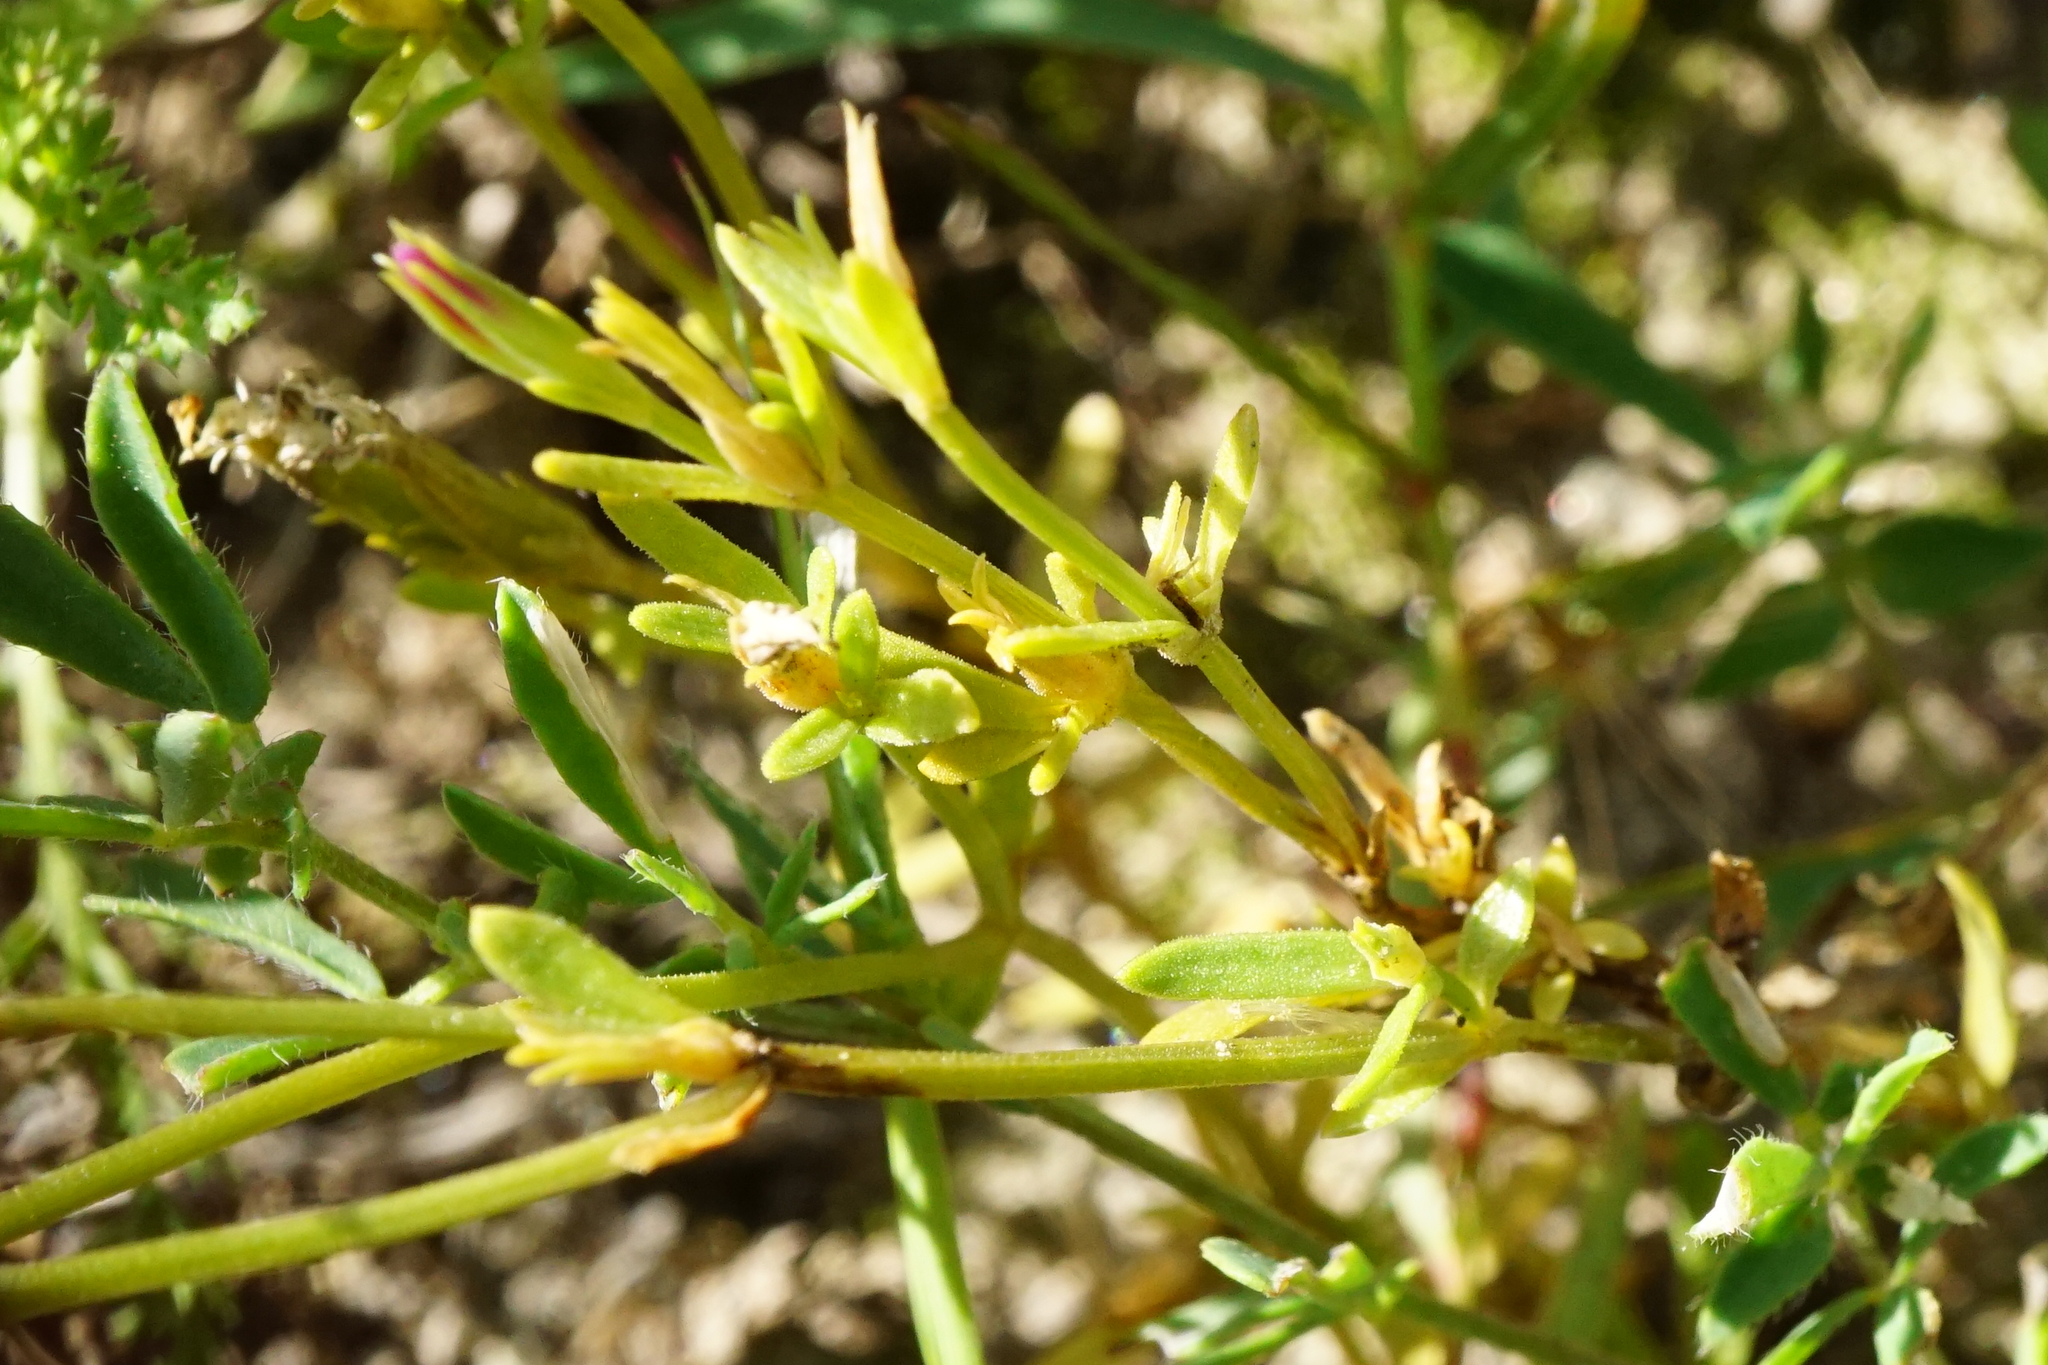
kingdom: Plantae
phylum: Tracheophyta
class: Magnoliopsida
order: Gentianales
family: Gentianaceae
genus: Centaurium
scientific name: Centaurium littorale
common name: Seaside centaury
